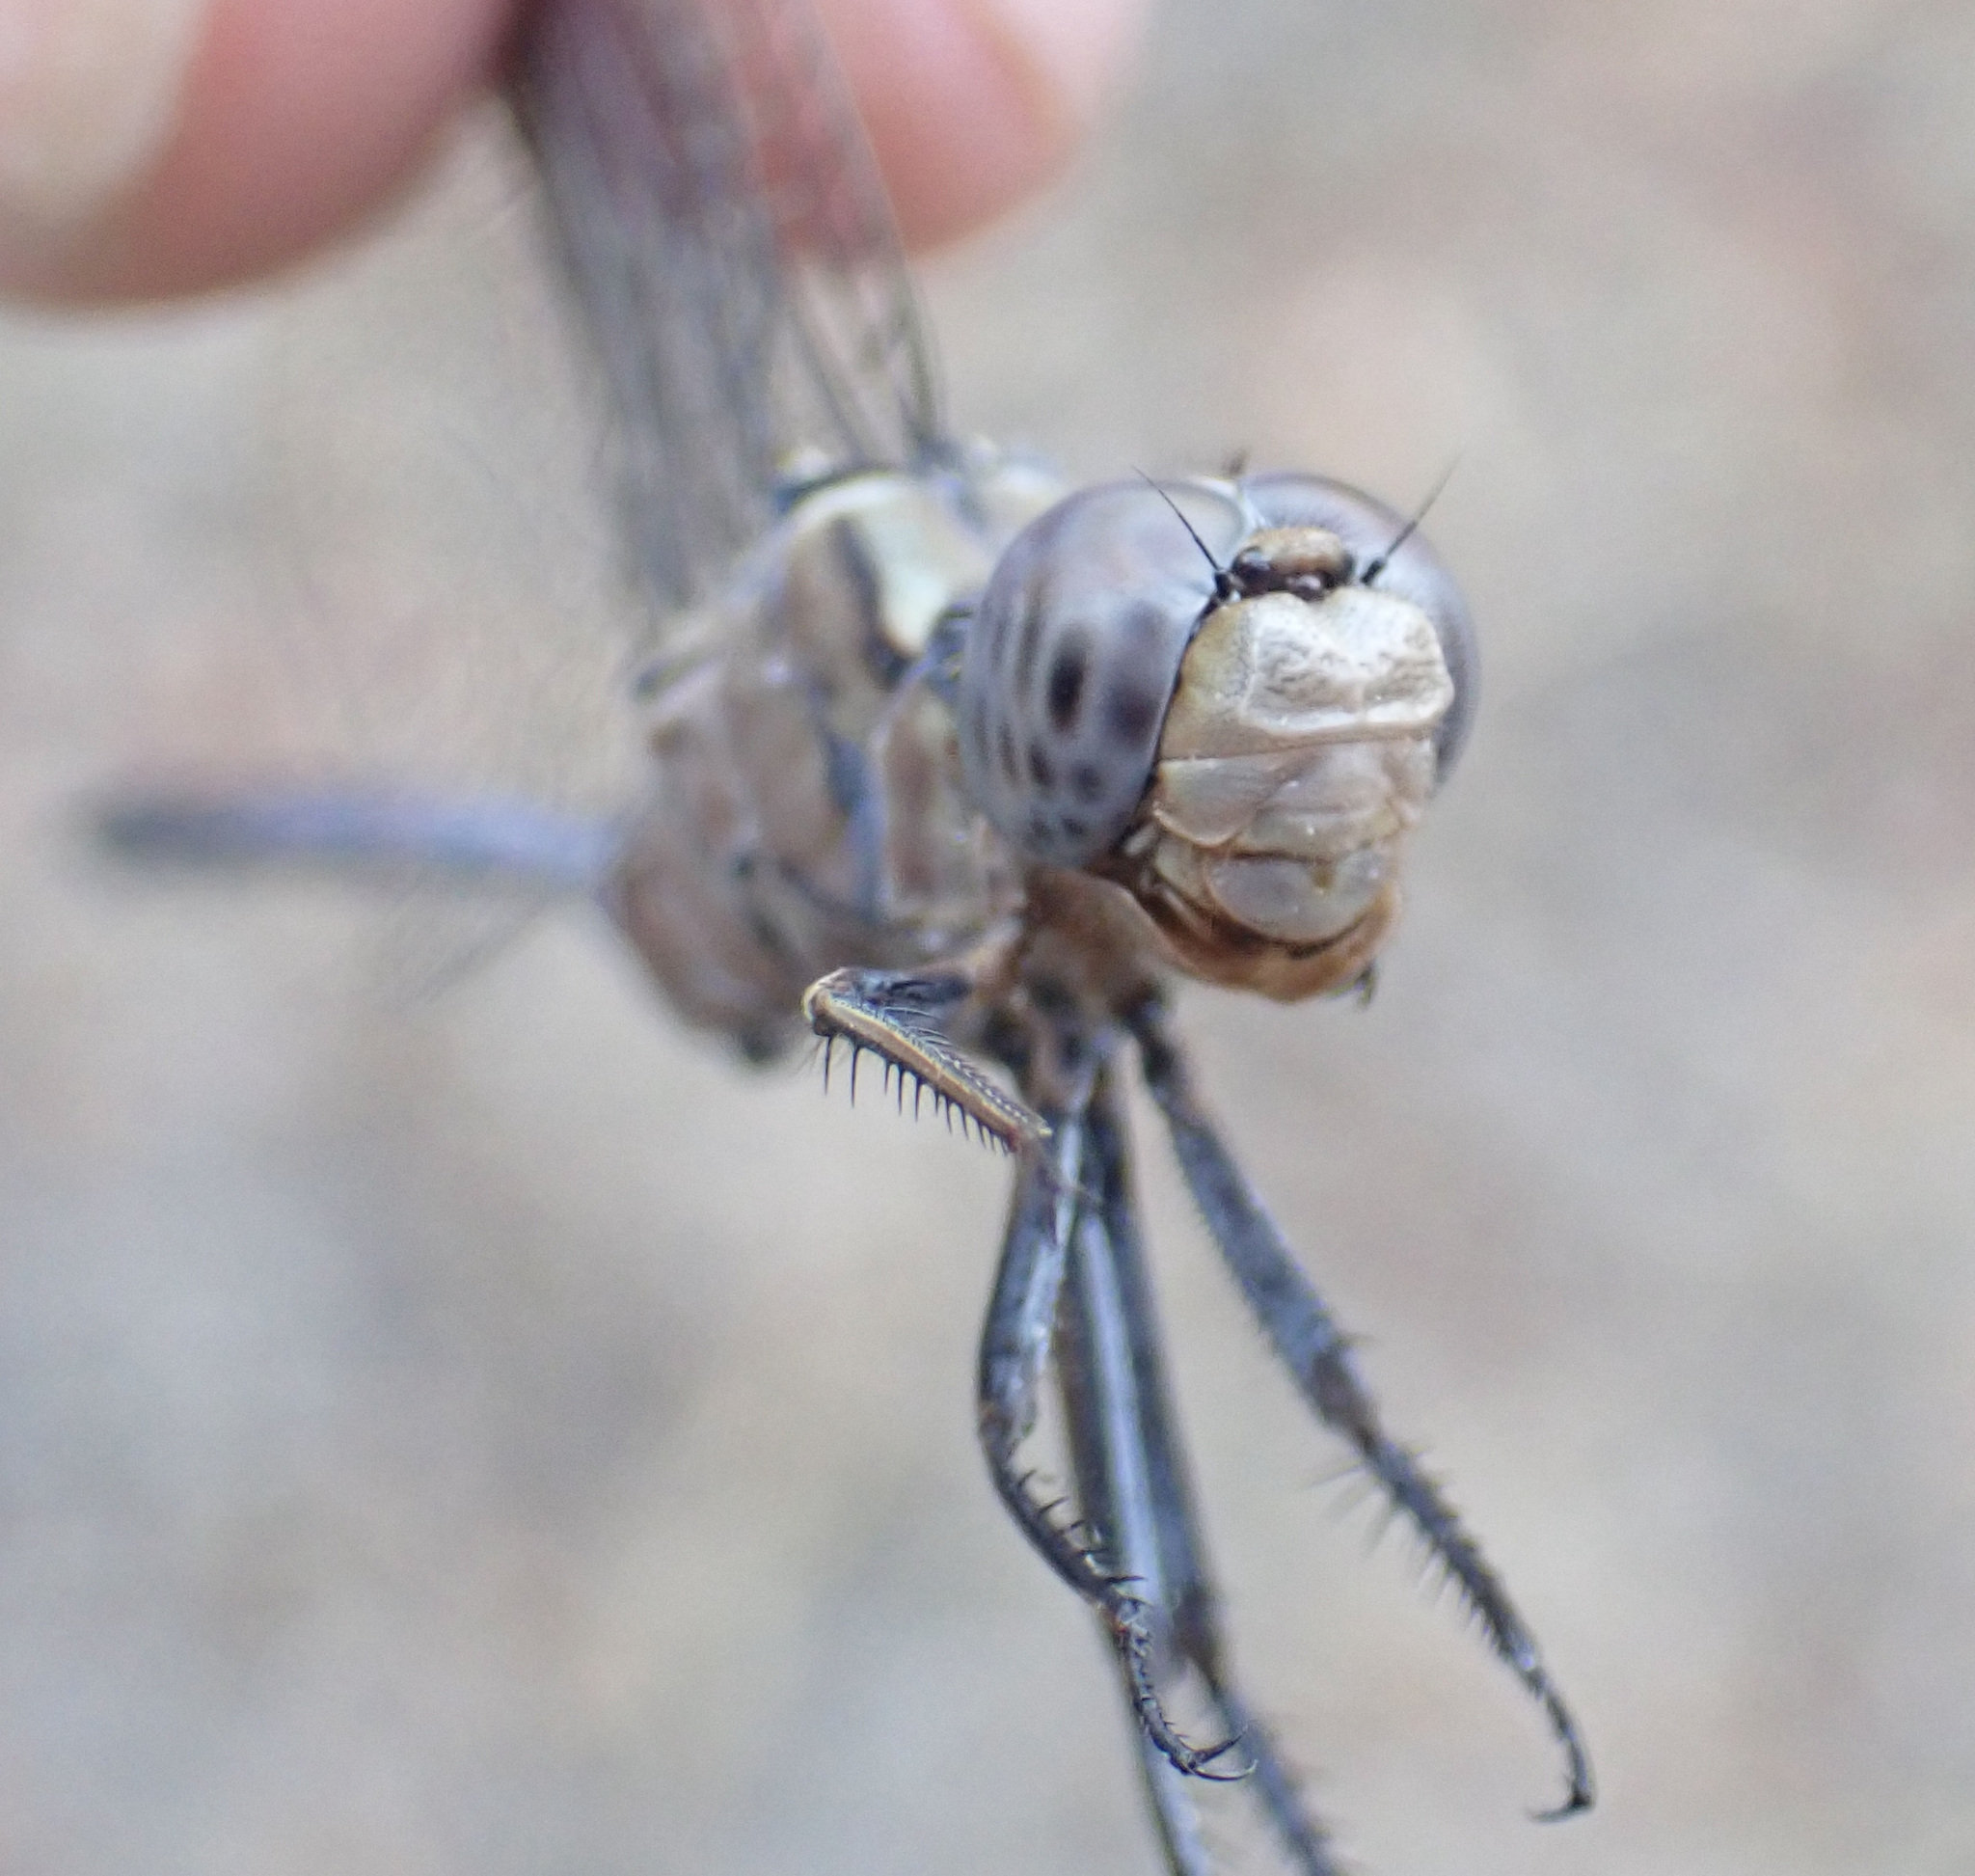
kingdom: Animalia
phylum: Arthropoda
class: Insecta
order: Odonata
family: Libellulidae
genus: Orthetrum
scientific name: Orthetrum robustum
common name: Robust skimmer
